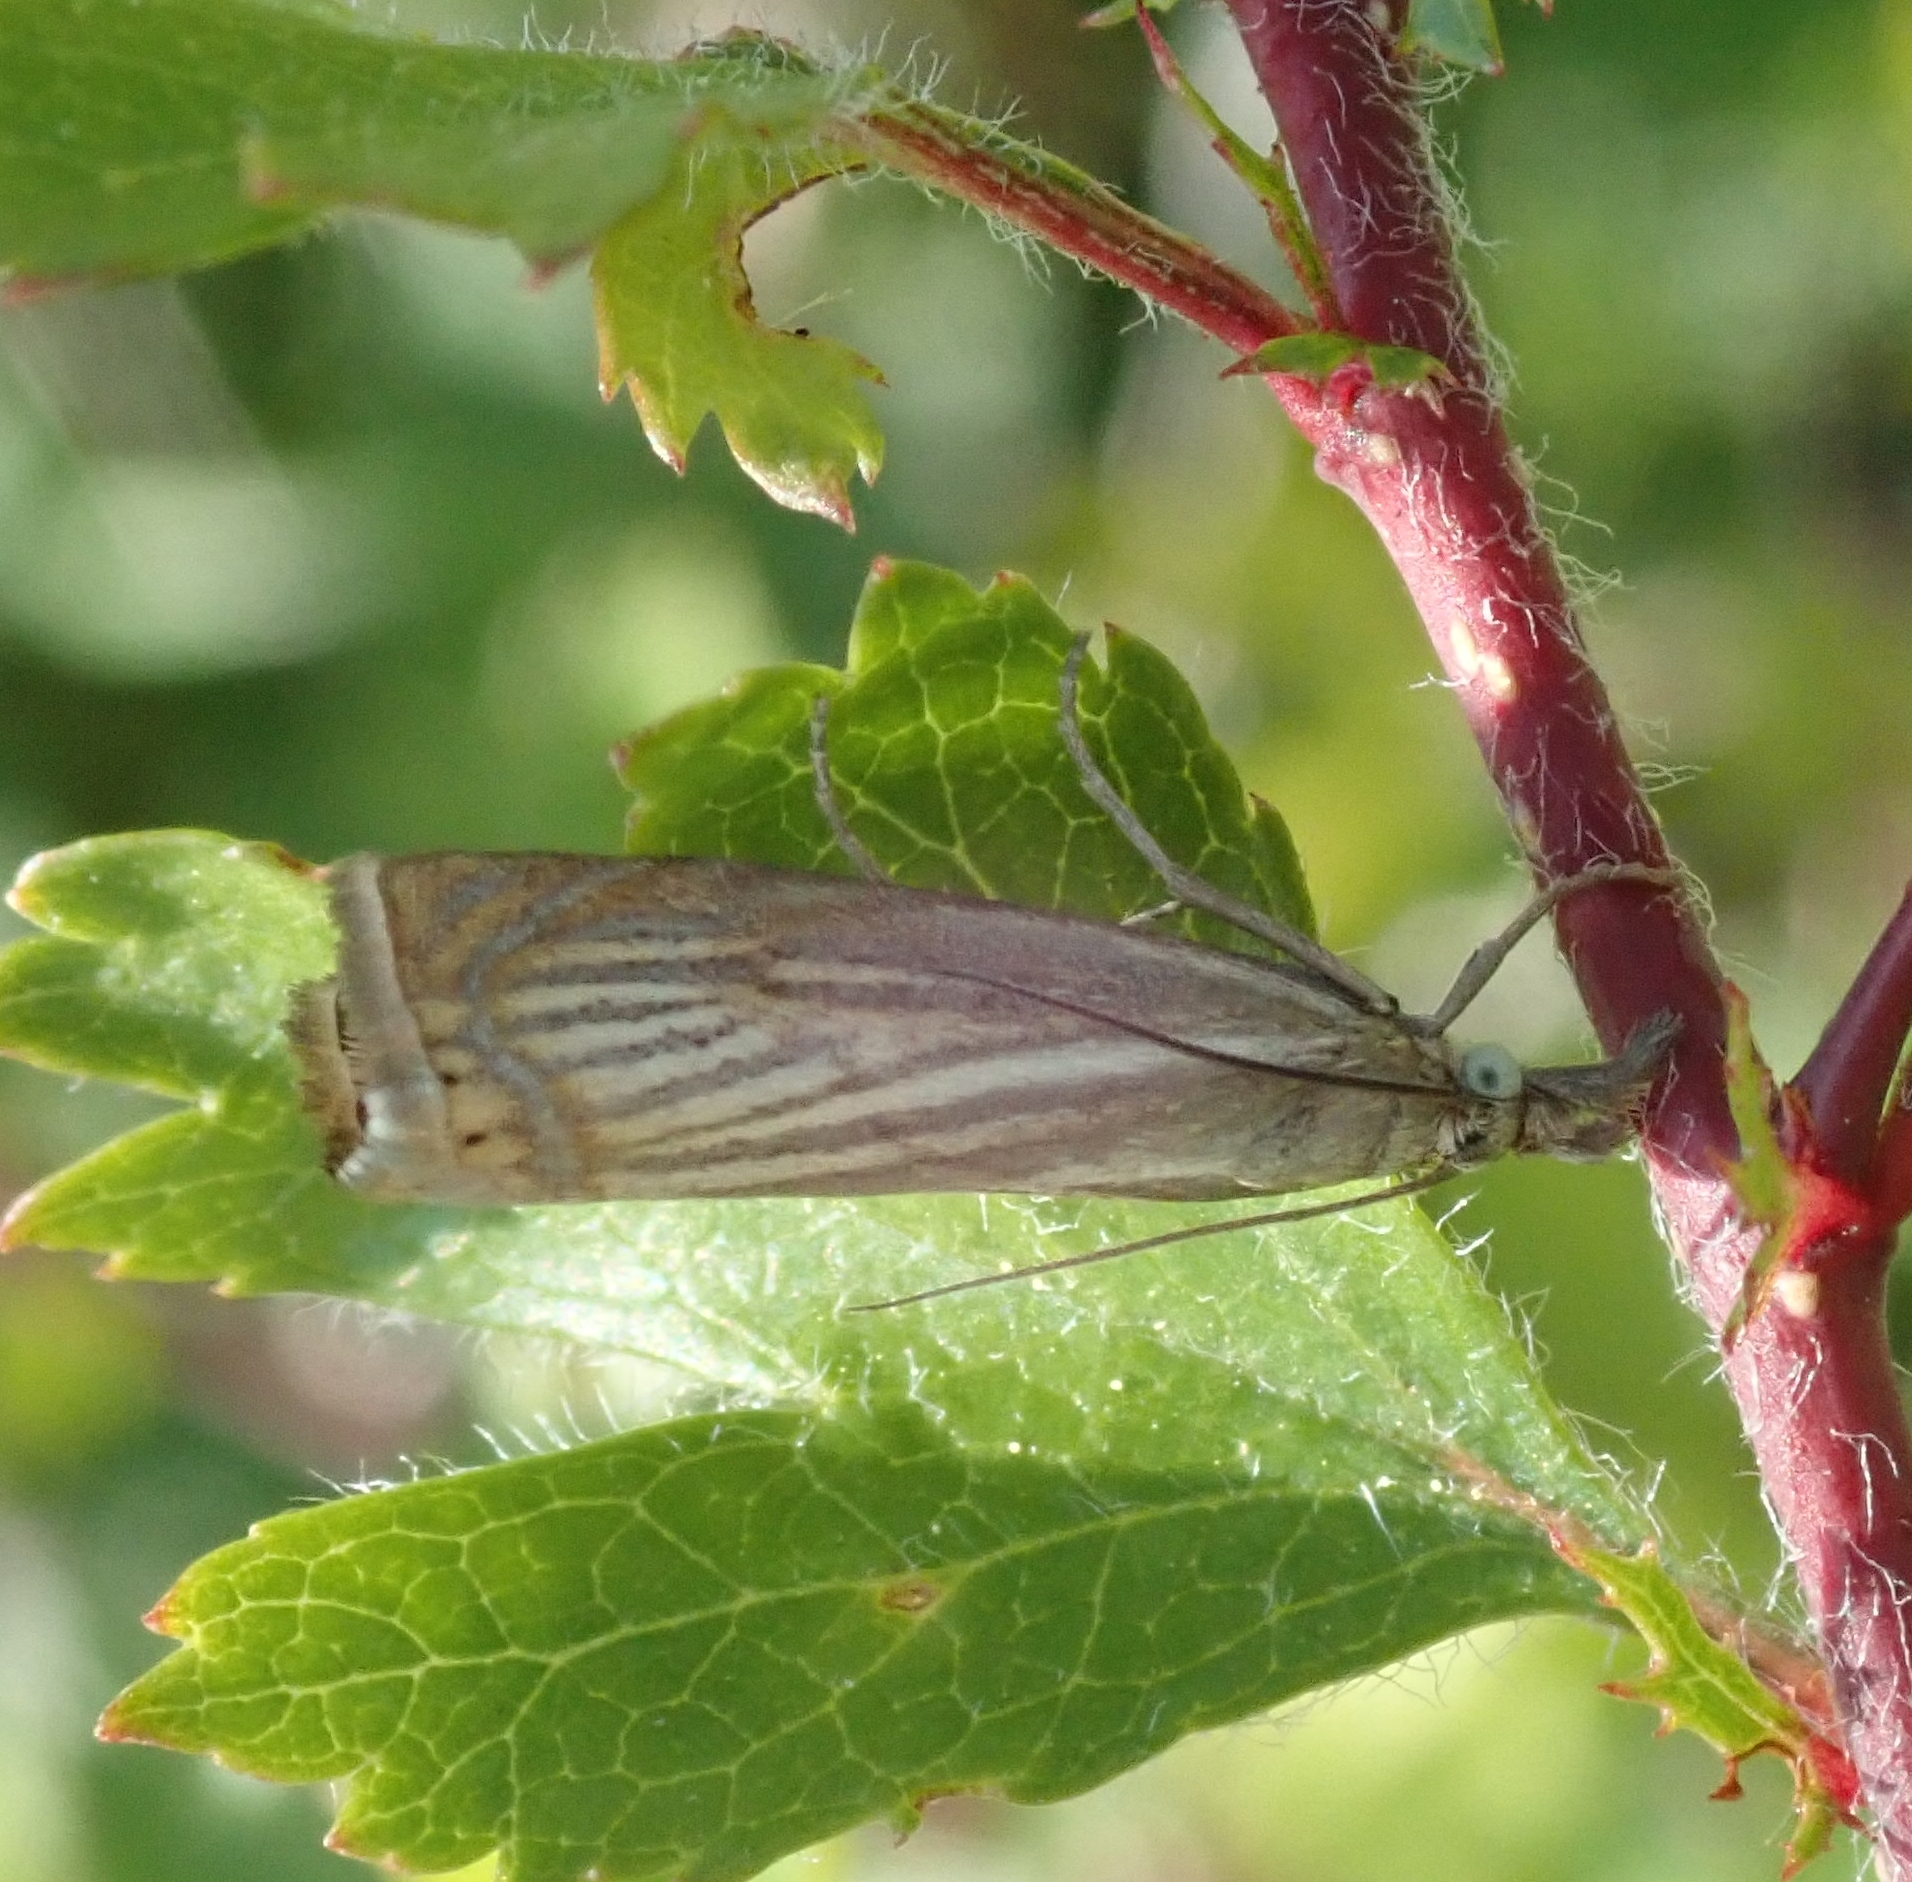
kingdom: Animalia
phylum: Arthropoda
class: Insecta
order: Lepidoptera
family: Crambidae
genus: Chrysoteuchia
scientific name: Chrysoteuchia culmella
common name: Garden grass-veneer
